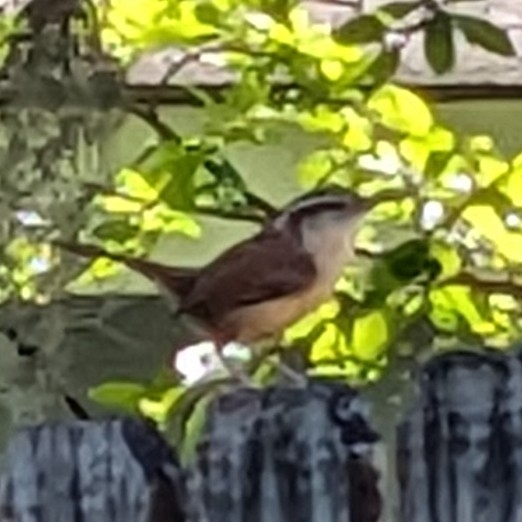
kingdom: Animalia
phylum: Chordata
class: Aves
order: Passeriformes
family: Troglodytidae
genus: Thryothorus
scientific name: Thryothorus ludovicianus
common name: Carolina wren
